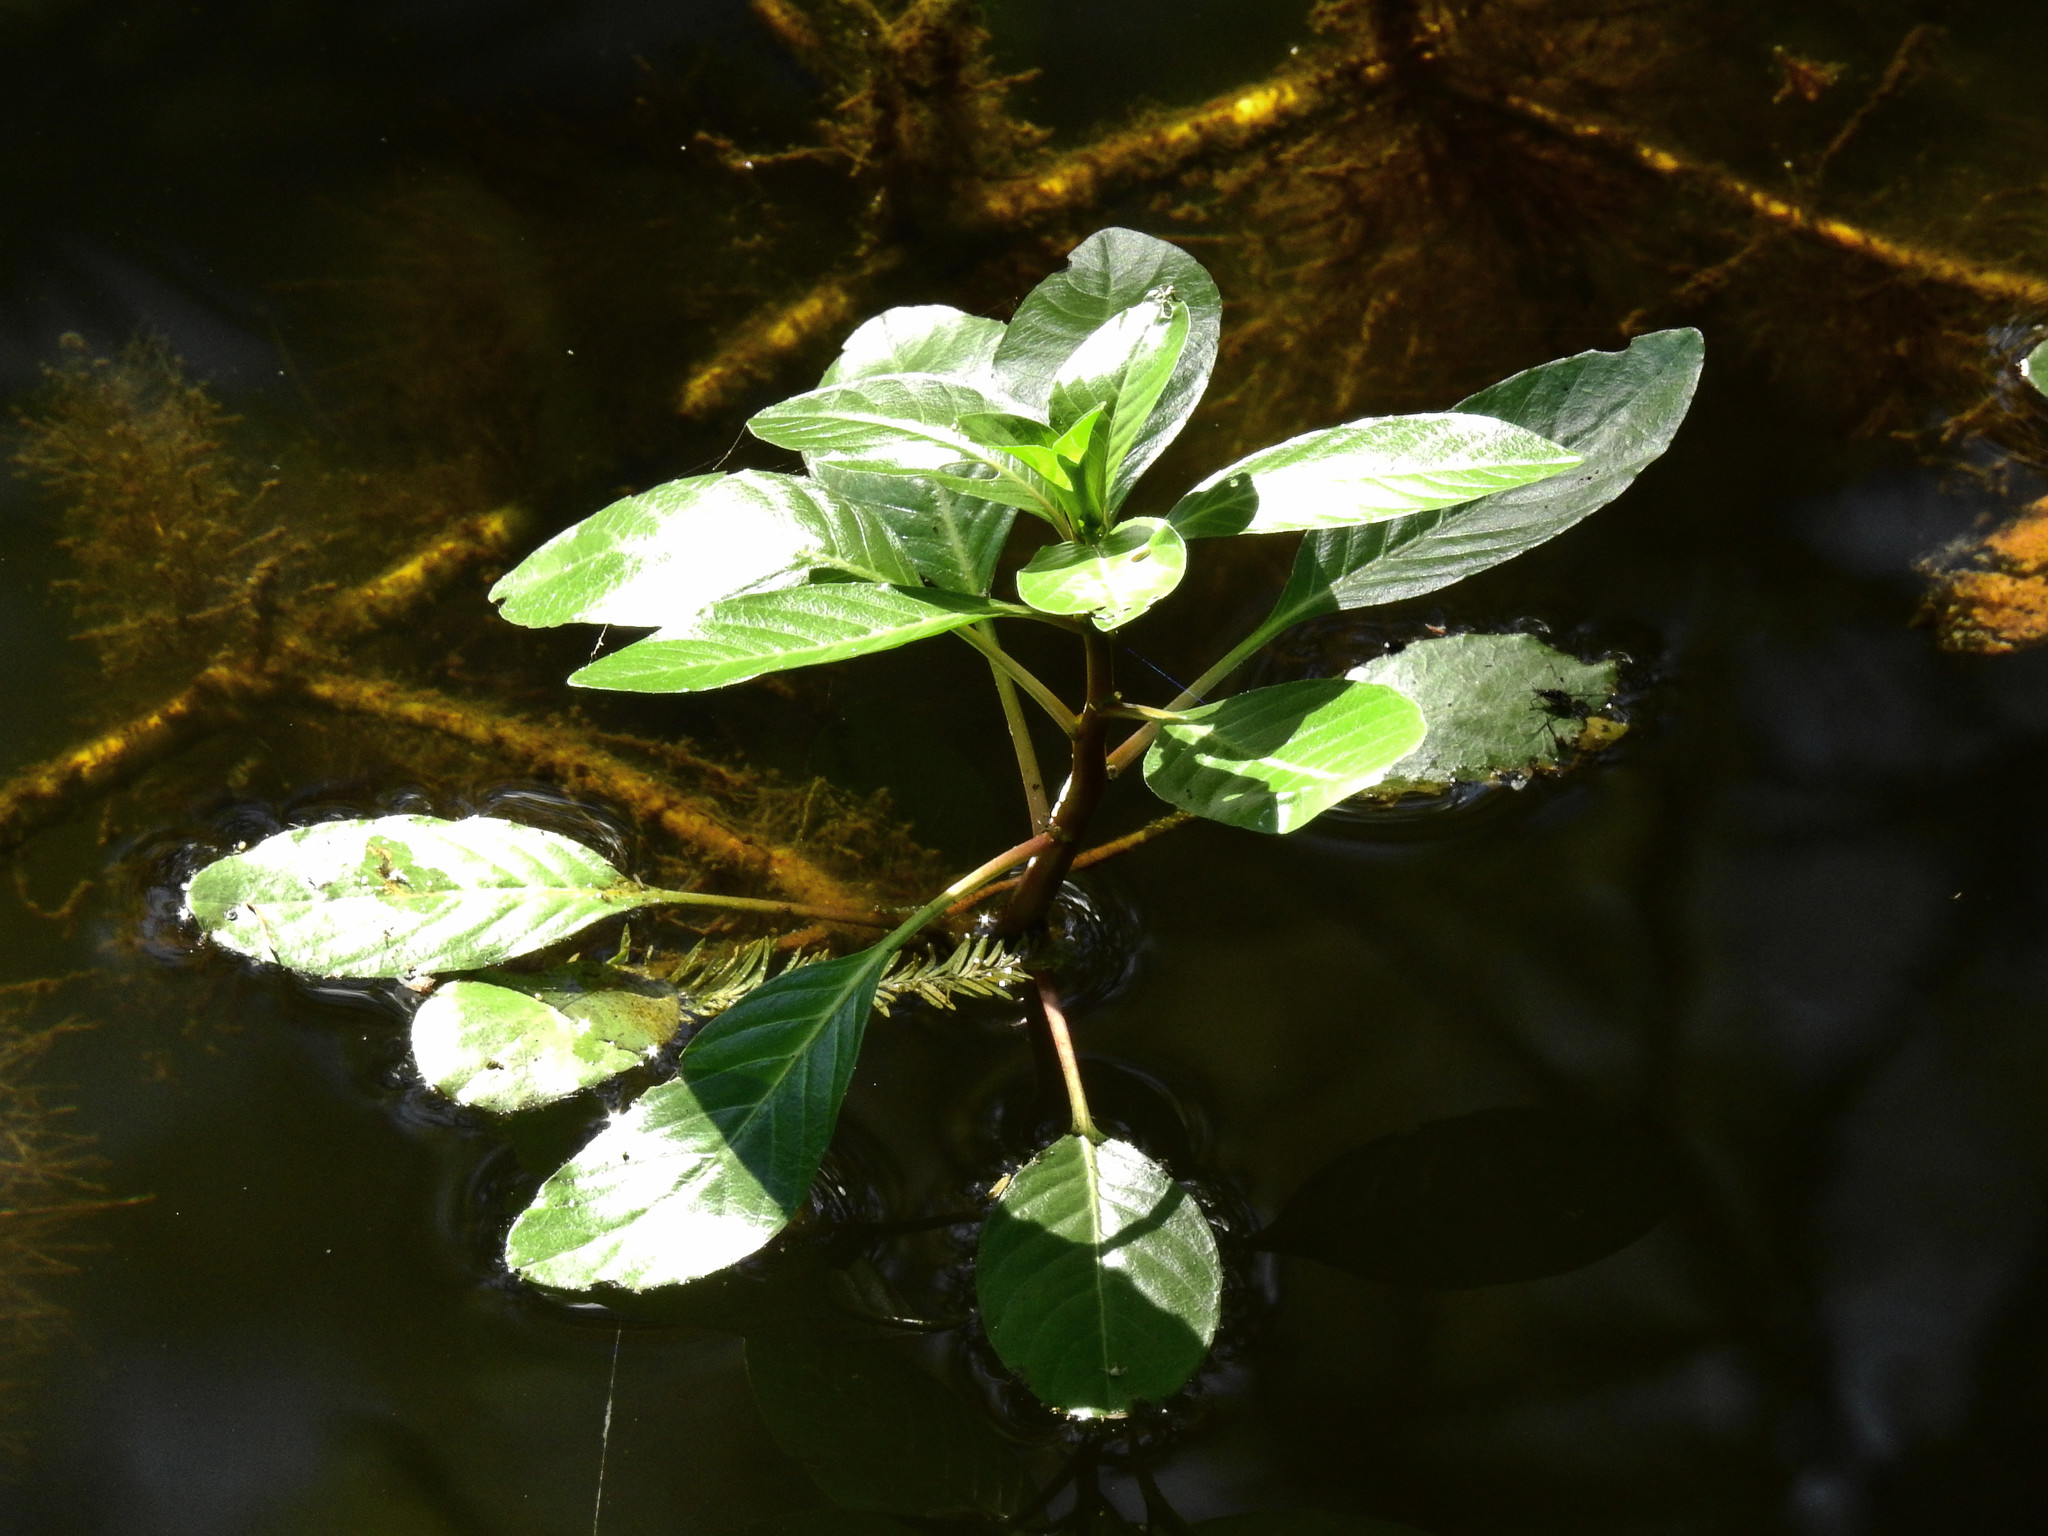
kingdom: Plantae
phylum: Tracheophyta
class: Magnoliopsida
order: Myrtales
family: Onagraceae
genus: Ludwigia
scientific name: Ludwigia peploides
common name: Floating primrose-willow
